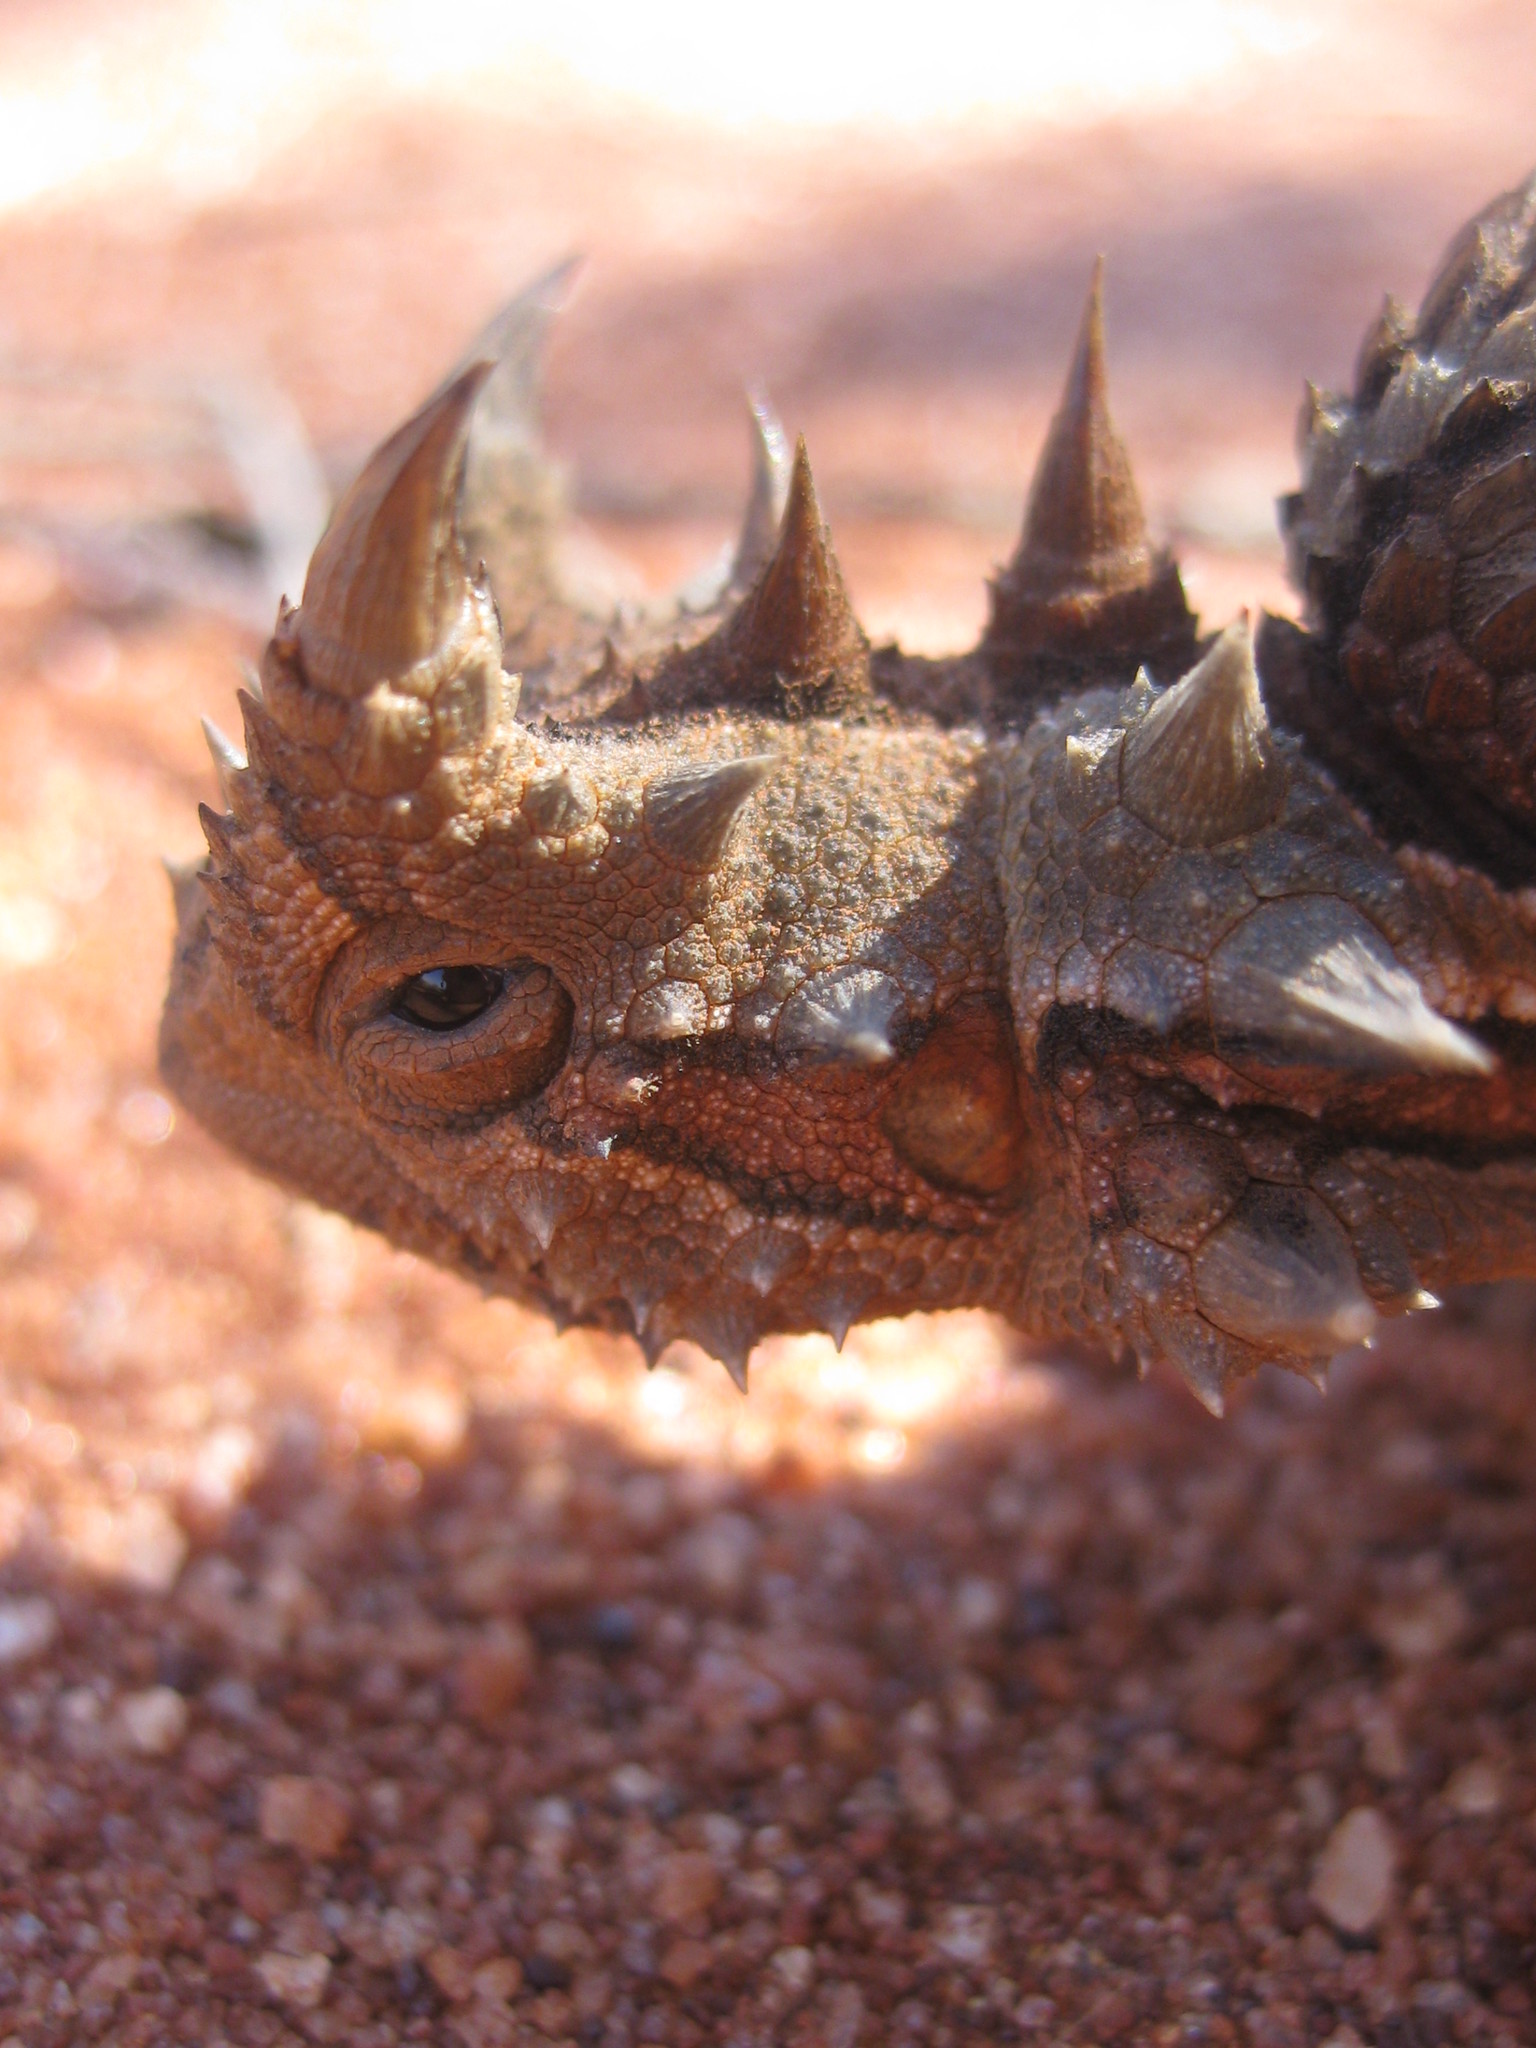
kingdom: Animalia
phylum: Chordata
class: Squamata
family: Agamidae
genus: Moloch
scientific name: Moloch horridus
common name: Mountain devil
